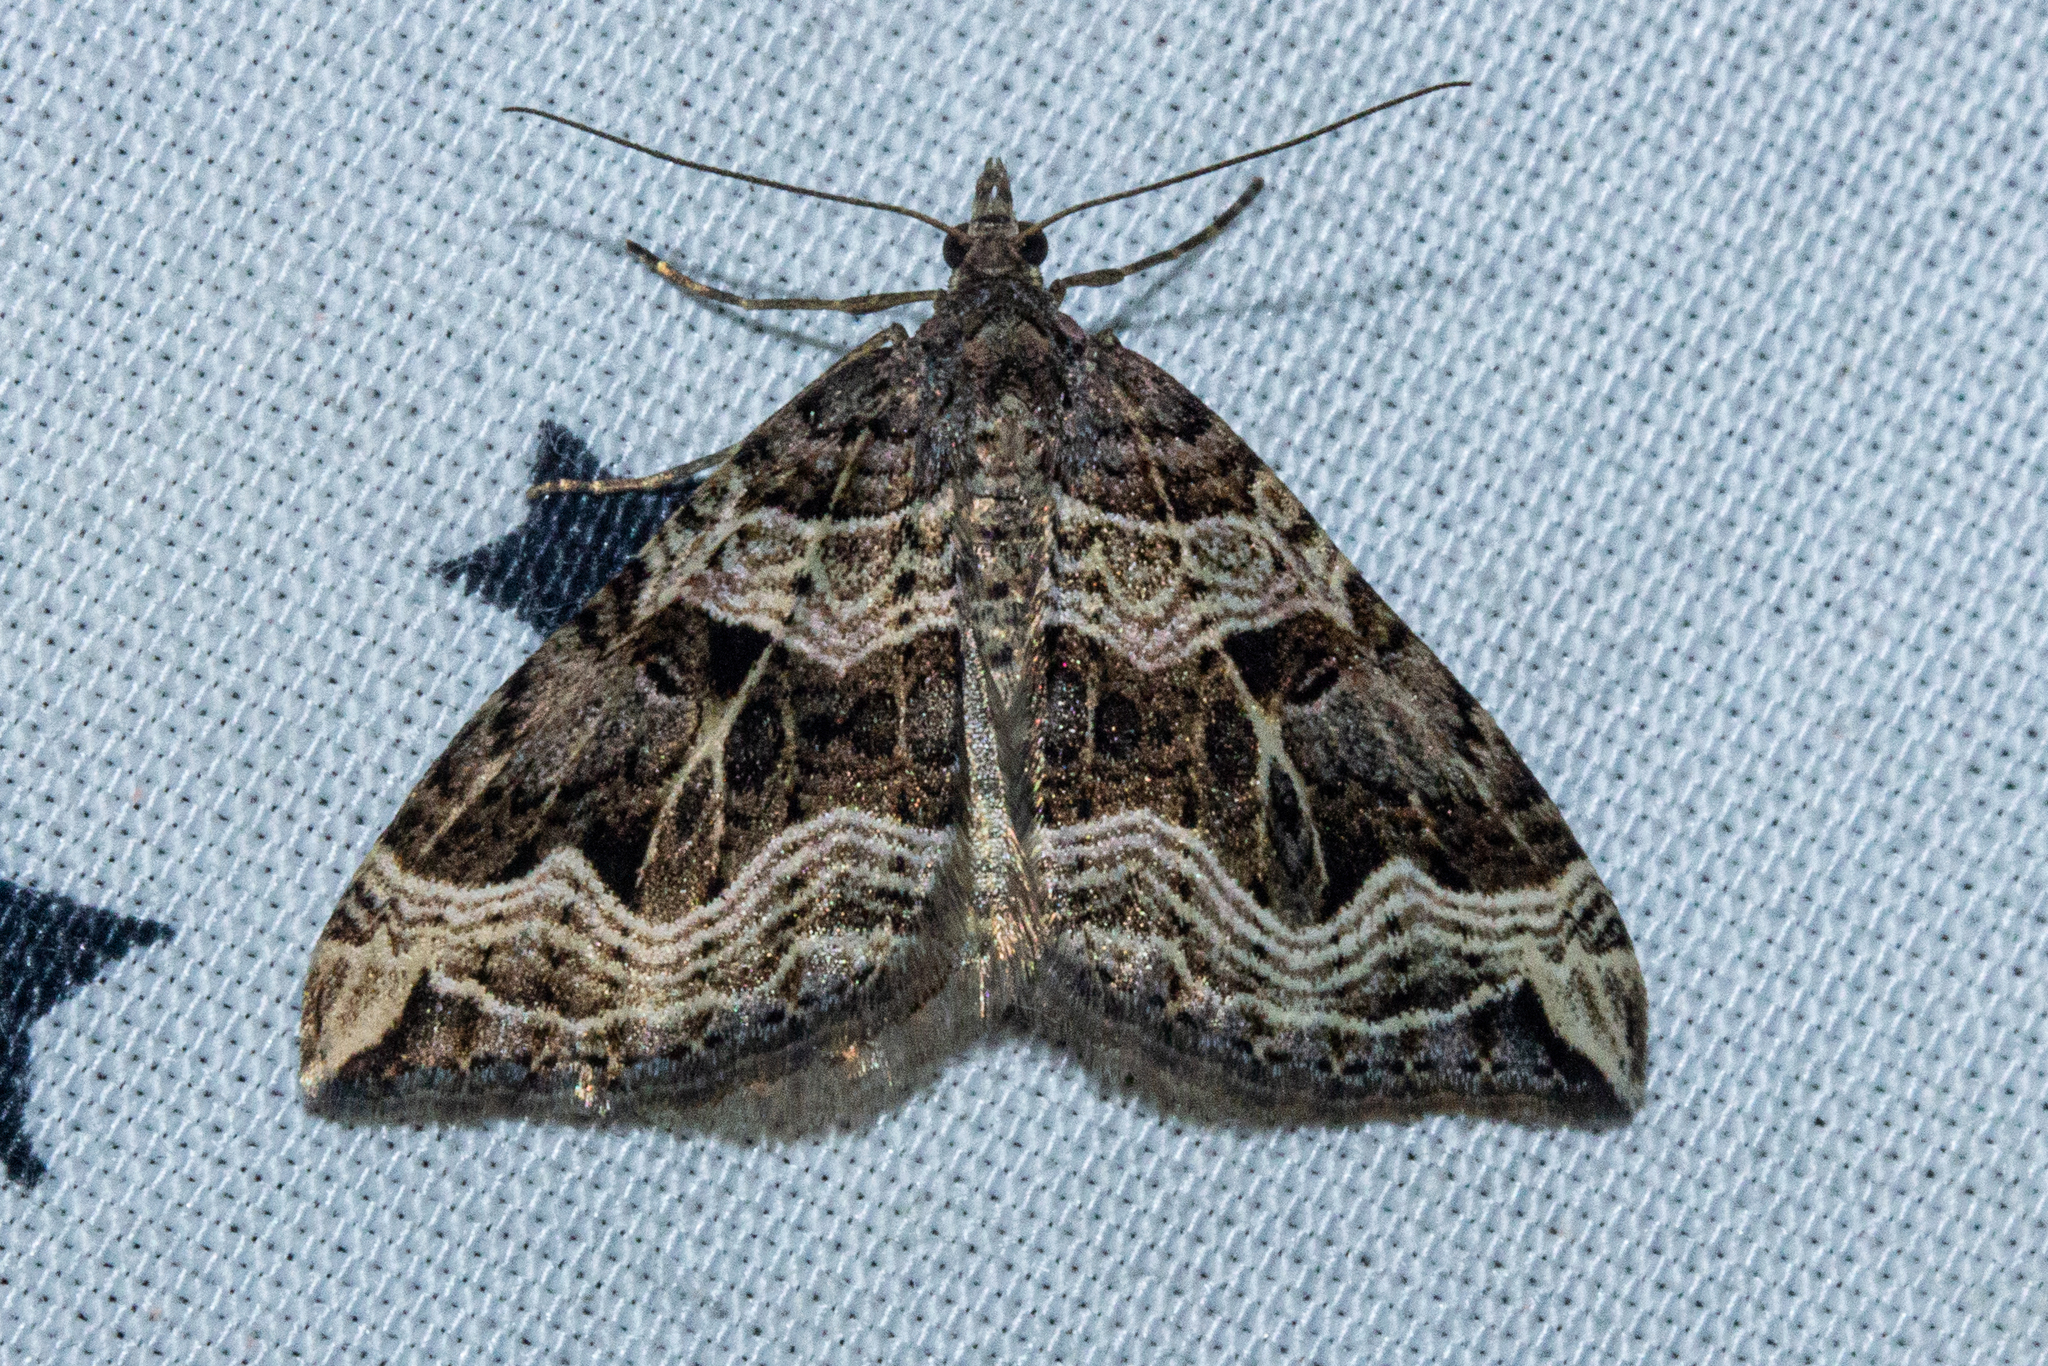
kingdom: Animalia
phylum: Arthropoda
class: Insecta
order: Lepidoptera
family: Geometridae
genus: Xanthorhoe
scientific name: Xanthorhoe semifissata
